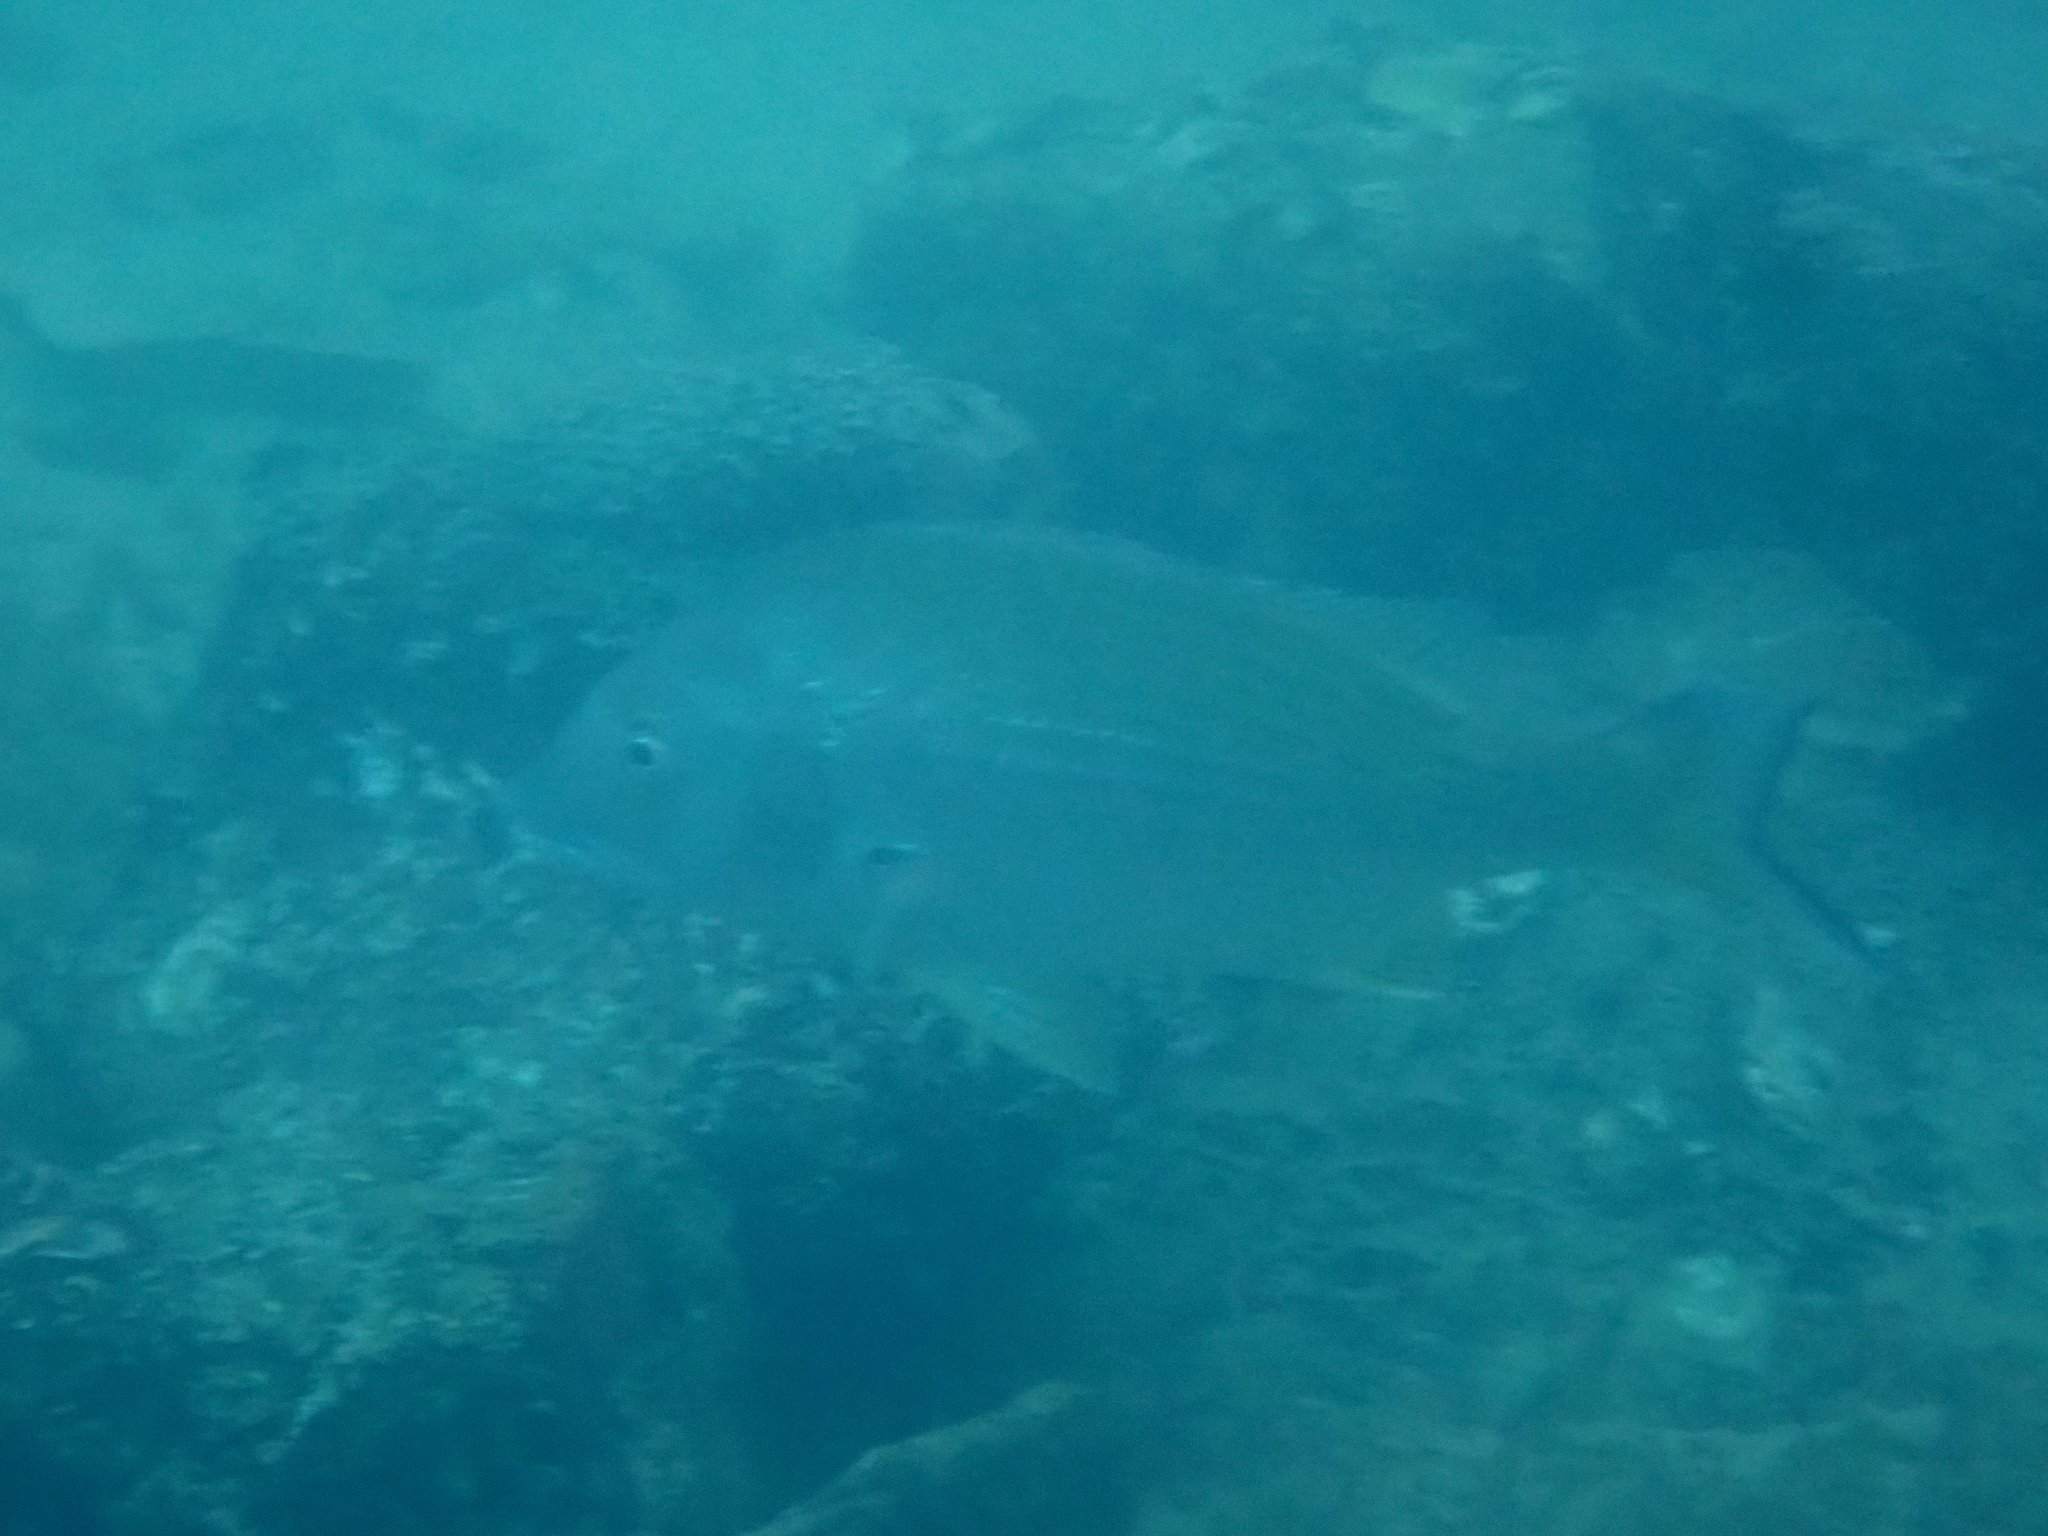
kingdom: Animalia
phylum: Chordata
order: Perciformes
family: Sparidae
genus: Acanthopagrus
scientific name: Acanthopagrus australis
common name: Surf bream
